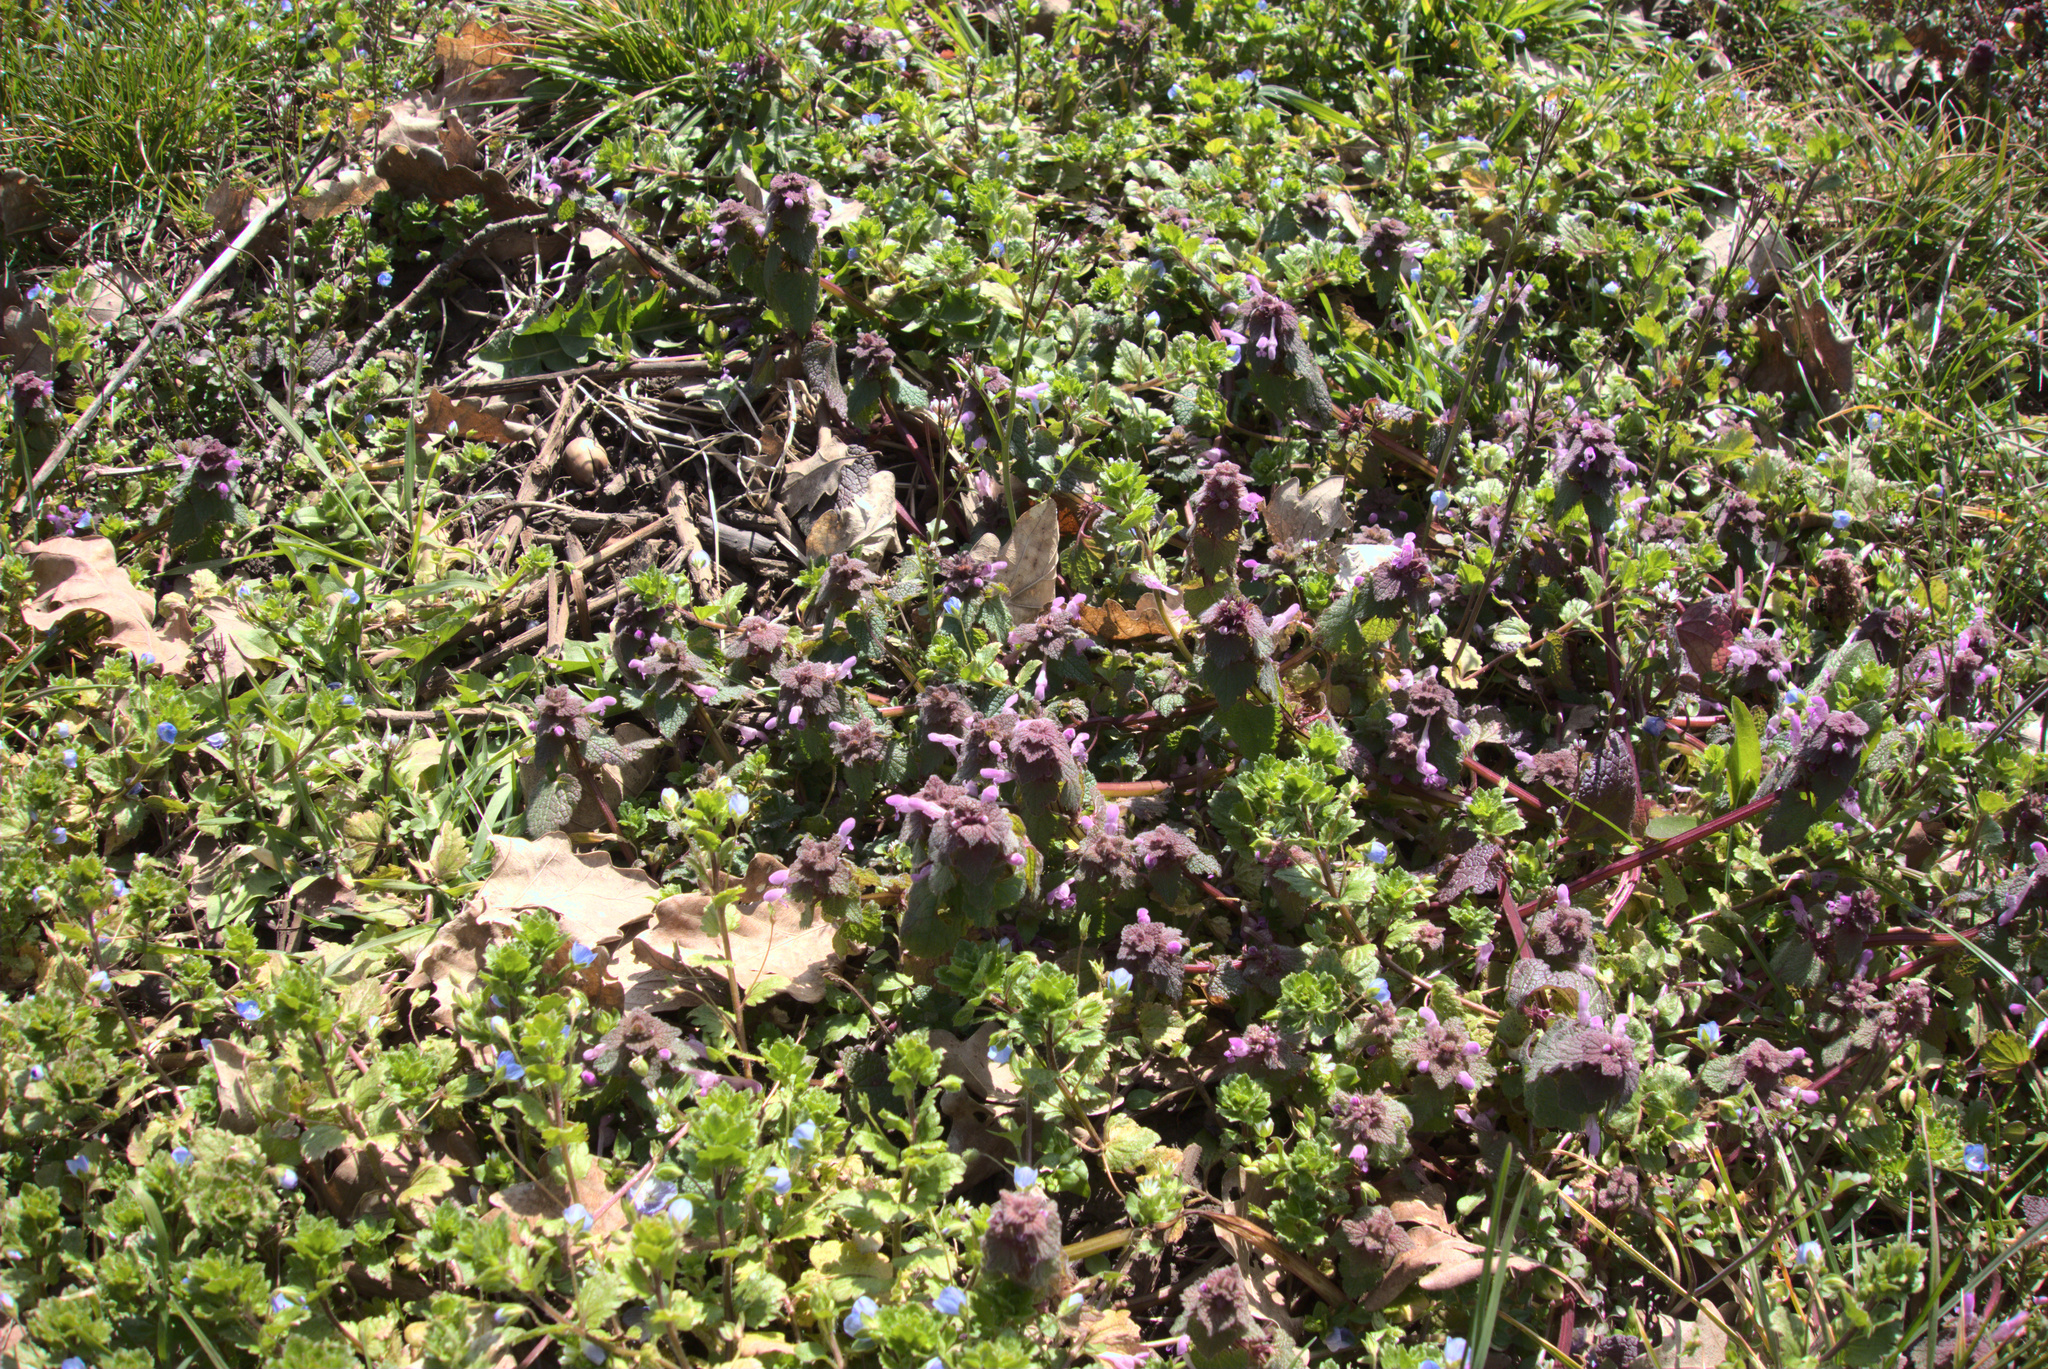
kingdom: Plantae
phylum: Tracheophyta
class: Magnoliopsida
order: Lamiales
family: Lamiaceae
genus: Lamium
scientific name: Lamium purpureum
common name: Red dead-nettle
